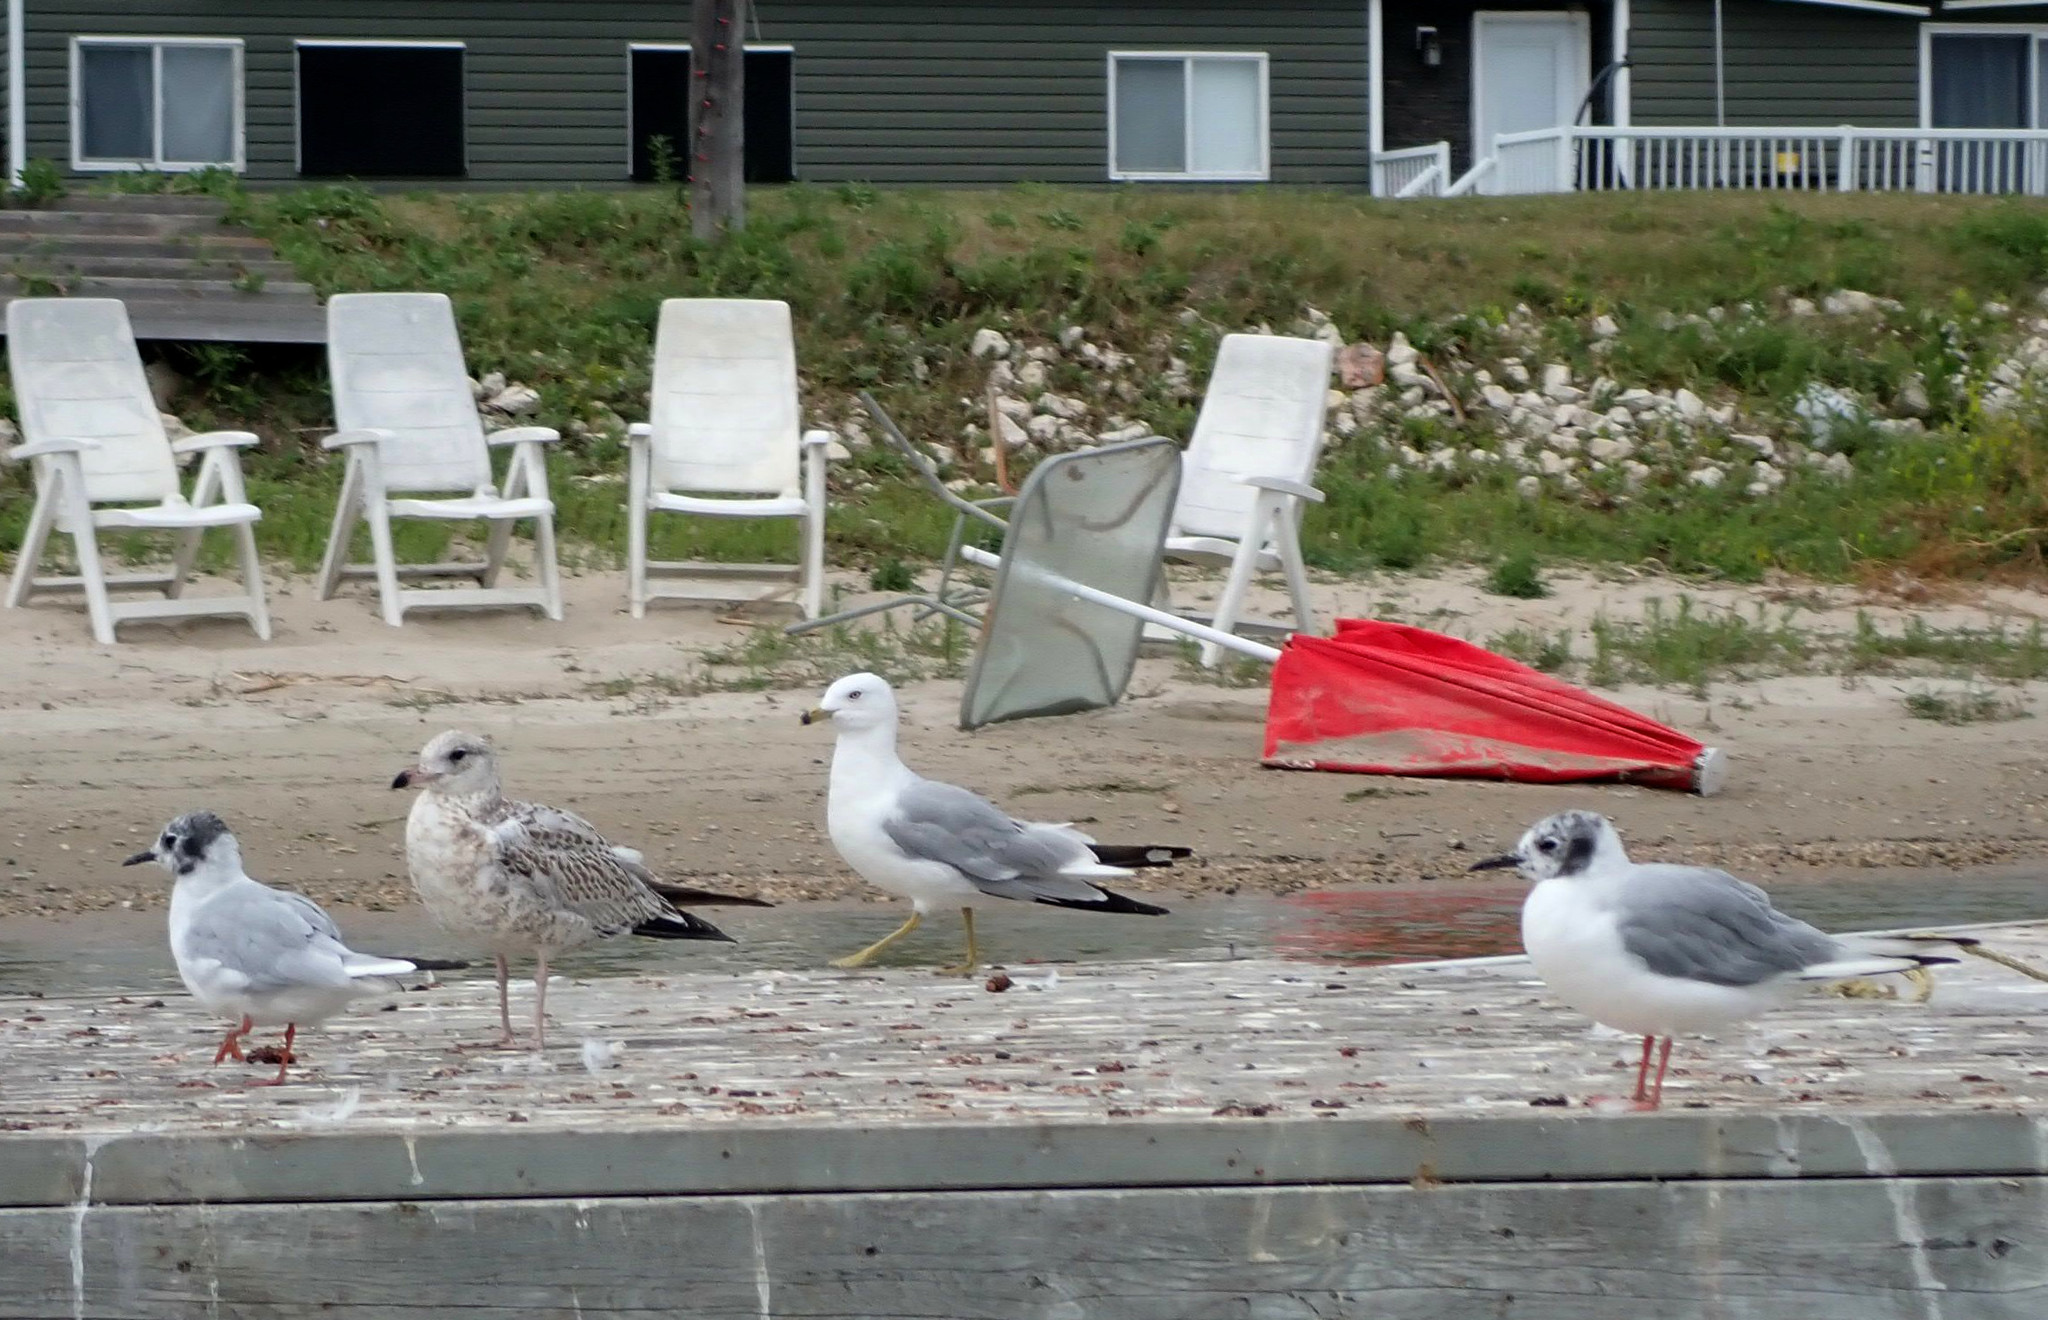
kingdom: Animalia
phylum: Chordata
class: Aves
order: Charadriiformes
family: Laridae
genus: Larus
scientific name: Larus delawarensis
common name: Ring-billed gull
